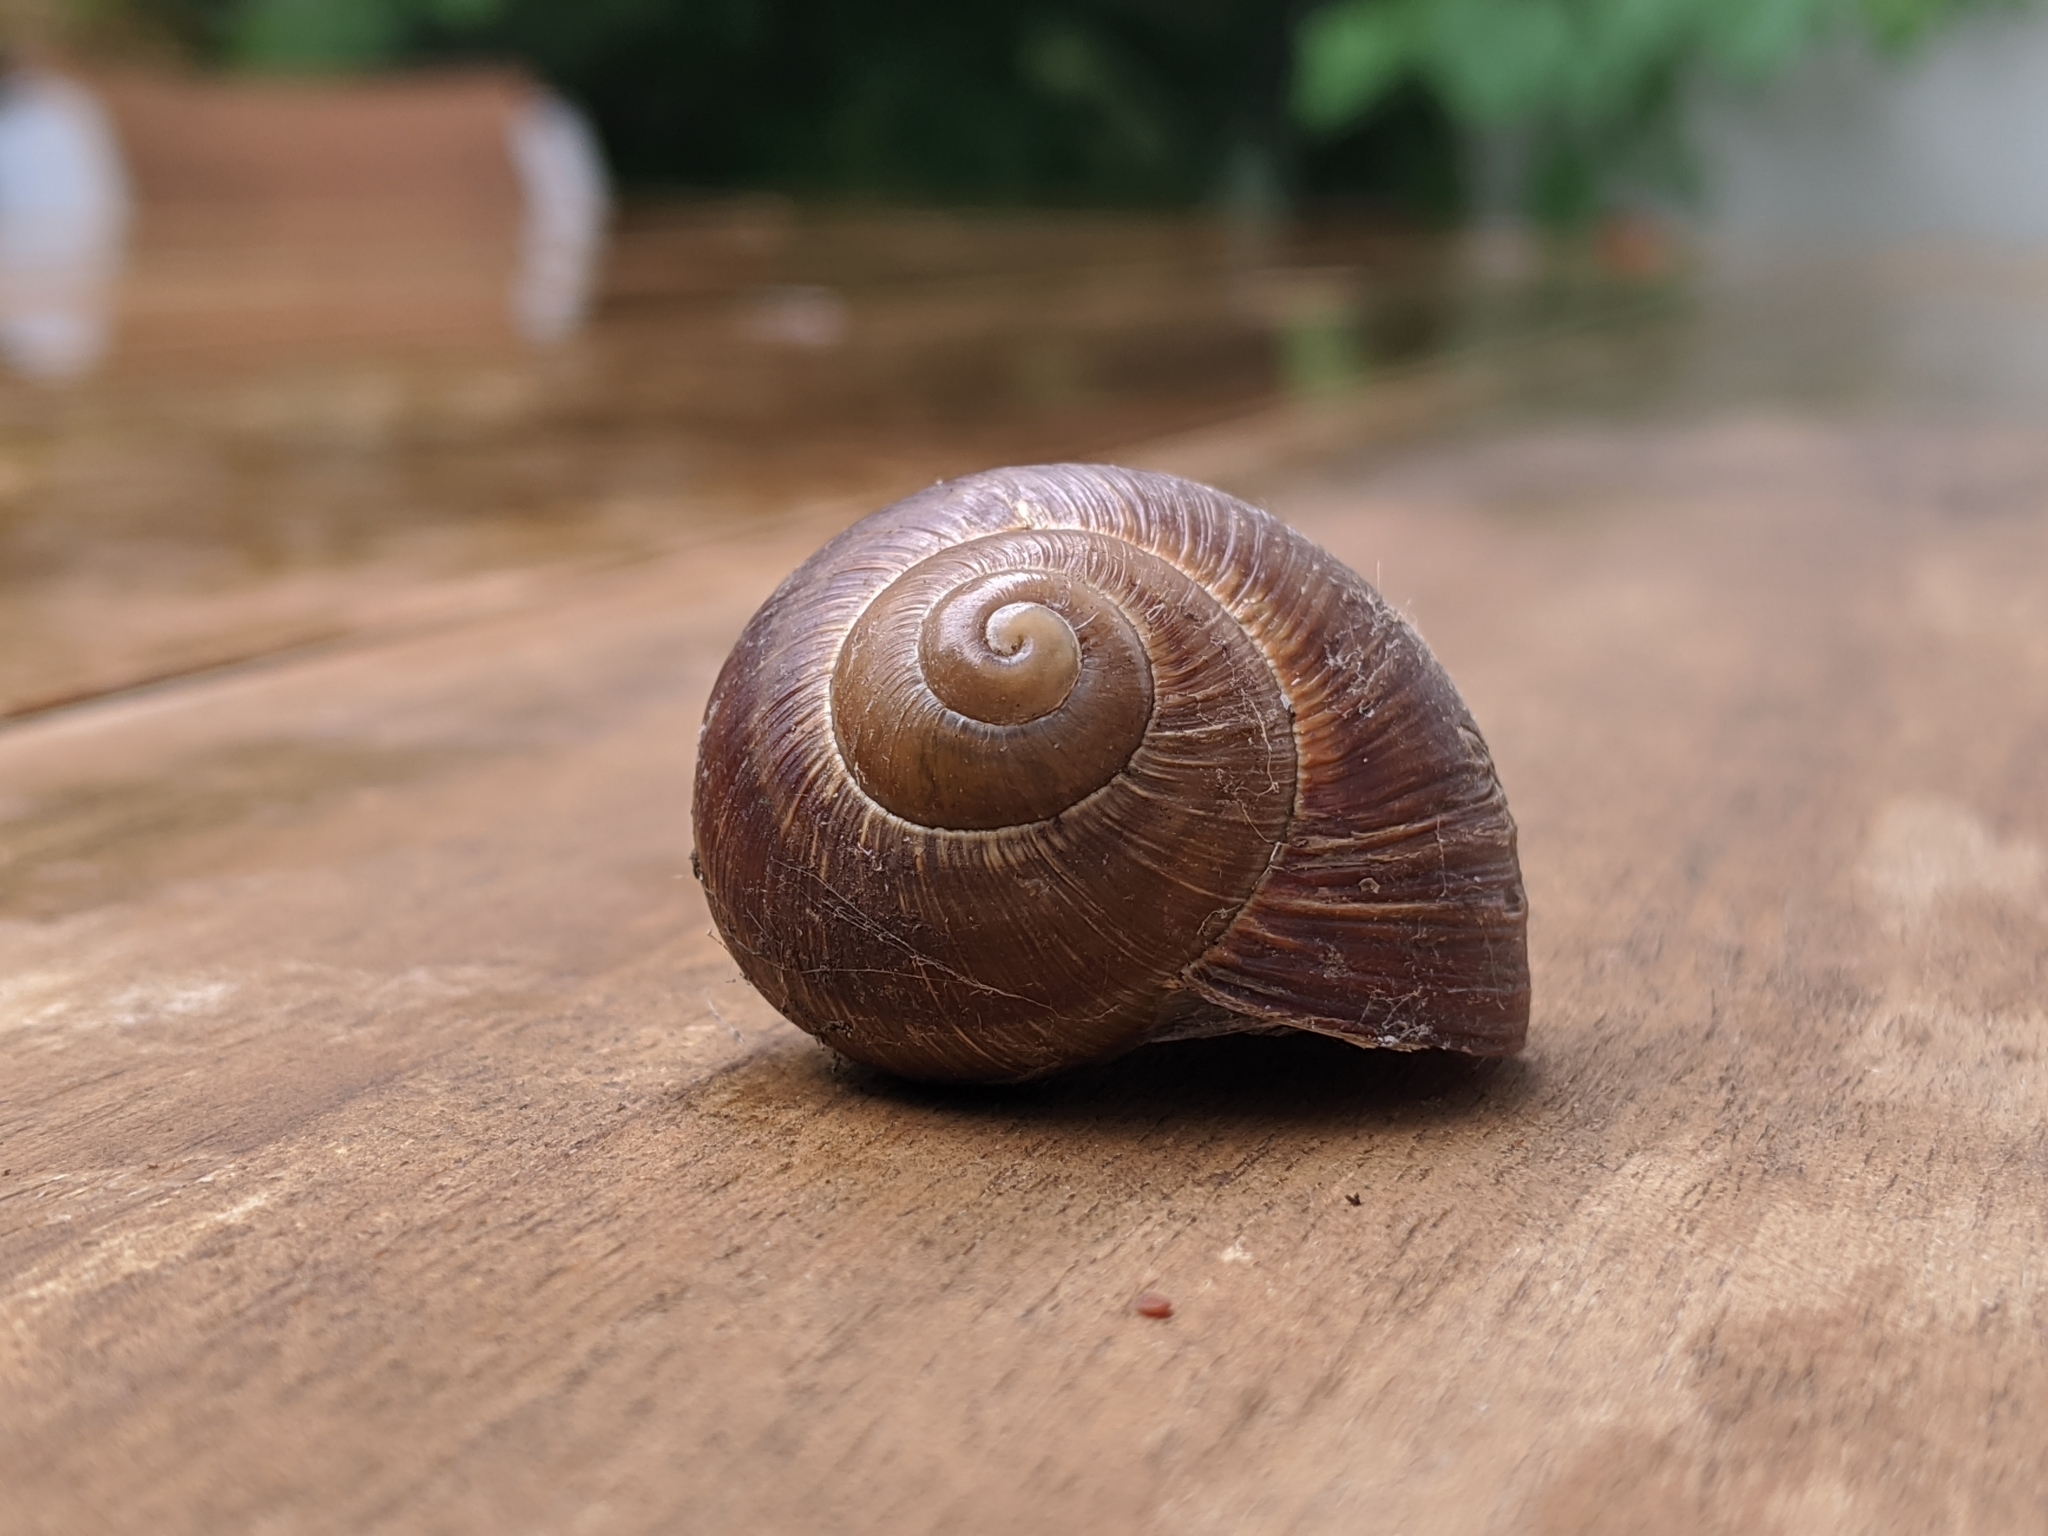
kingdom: Animalia
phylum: Mollusca
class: Gastropoda
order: Stylommatophora
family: Helicidae
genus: Helix
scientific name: Helix pomatia
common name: Roman snail
